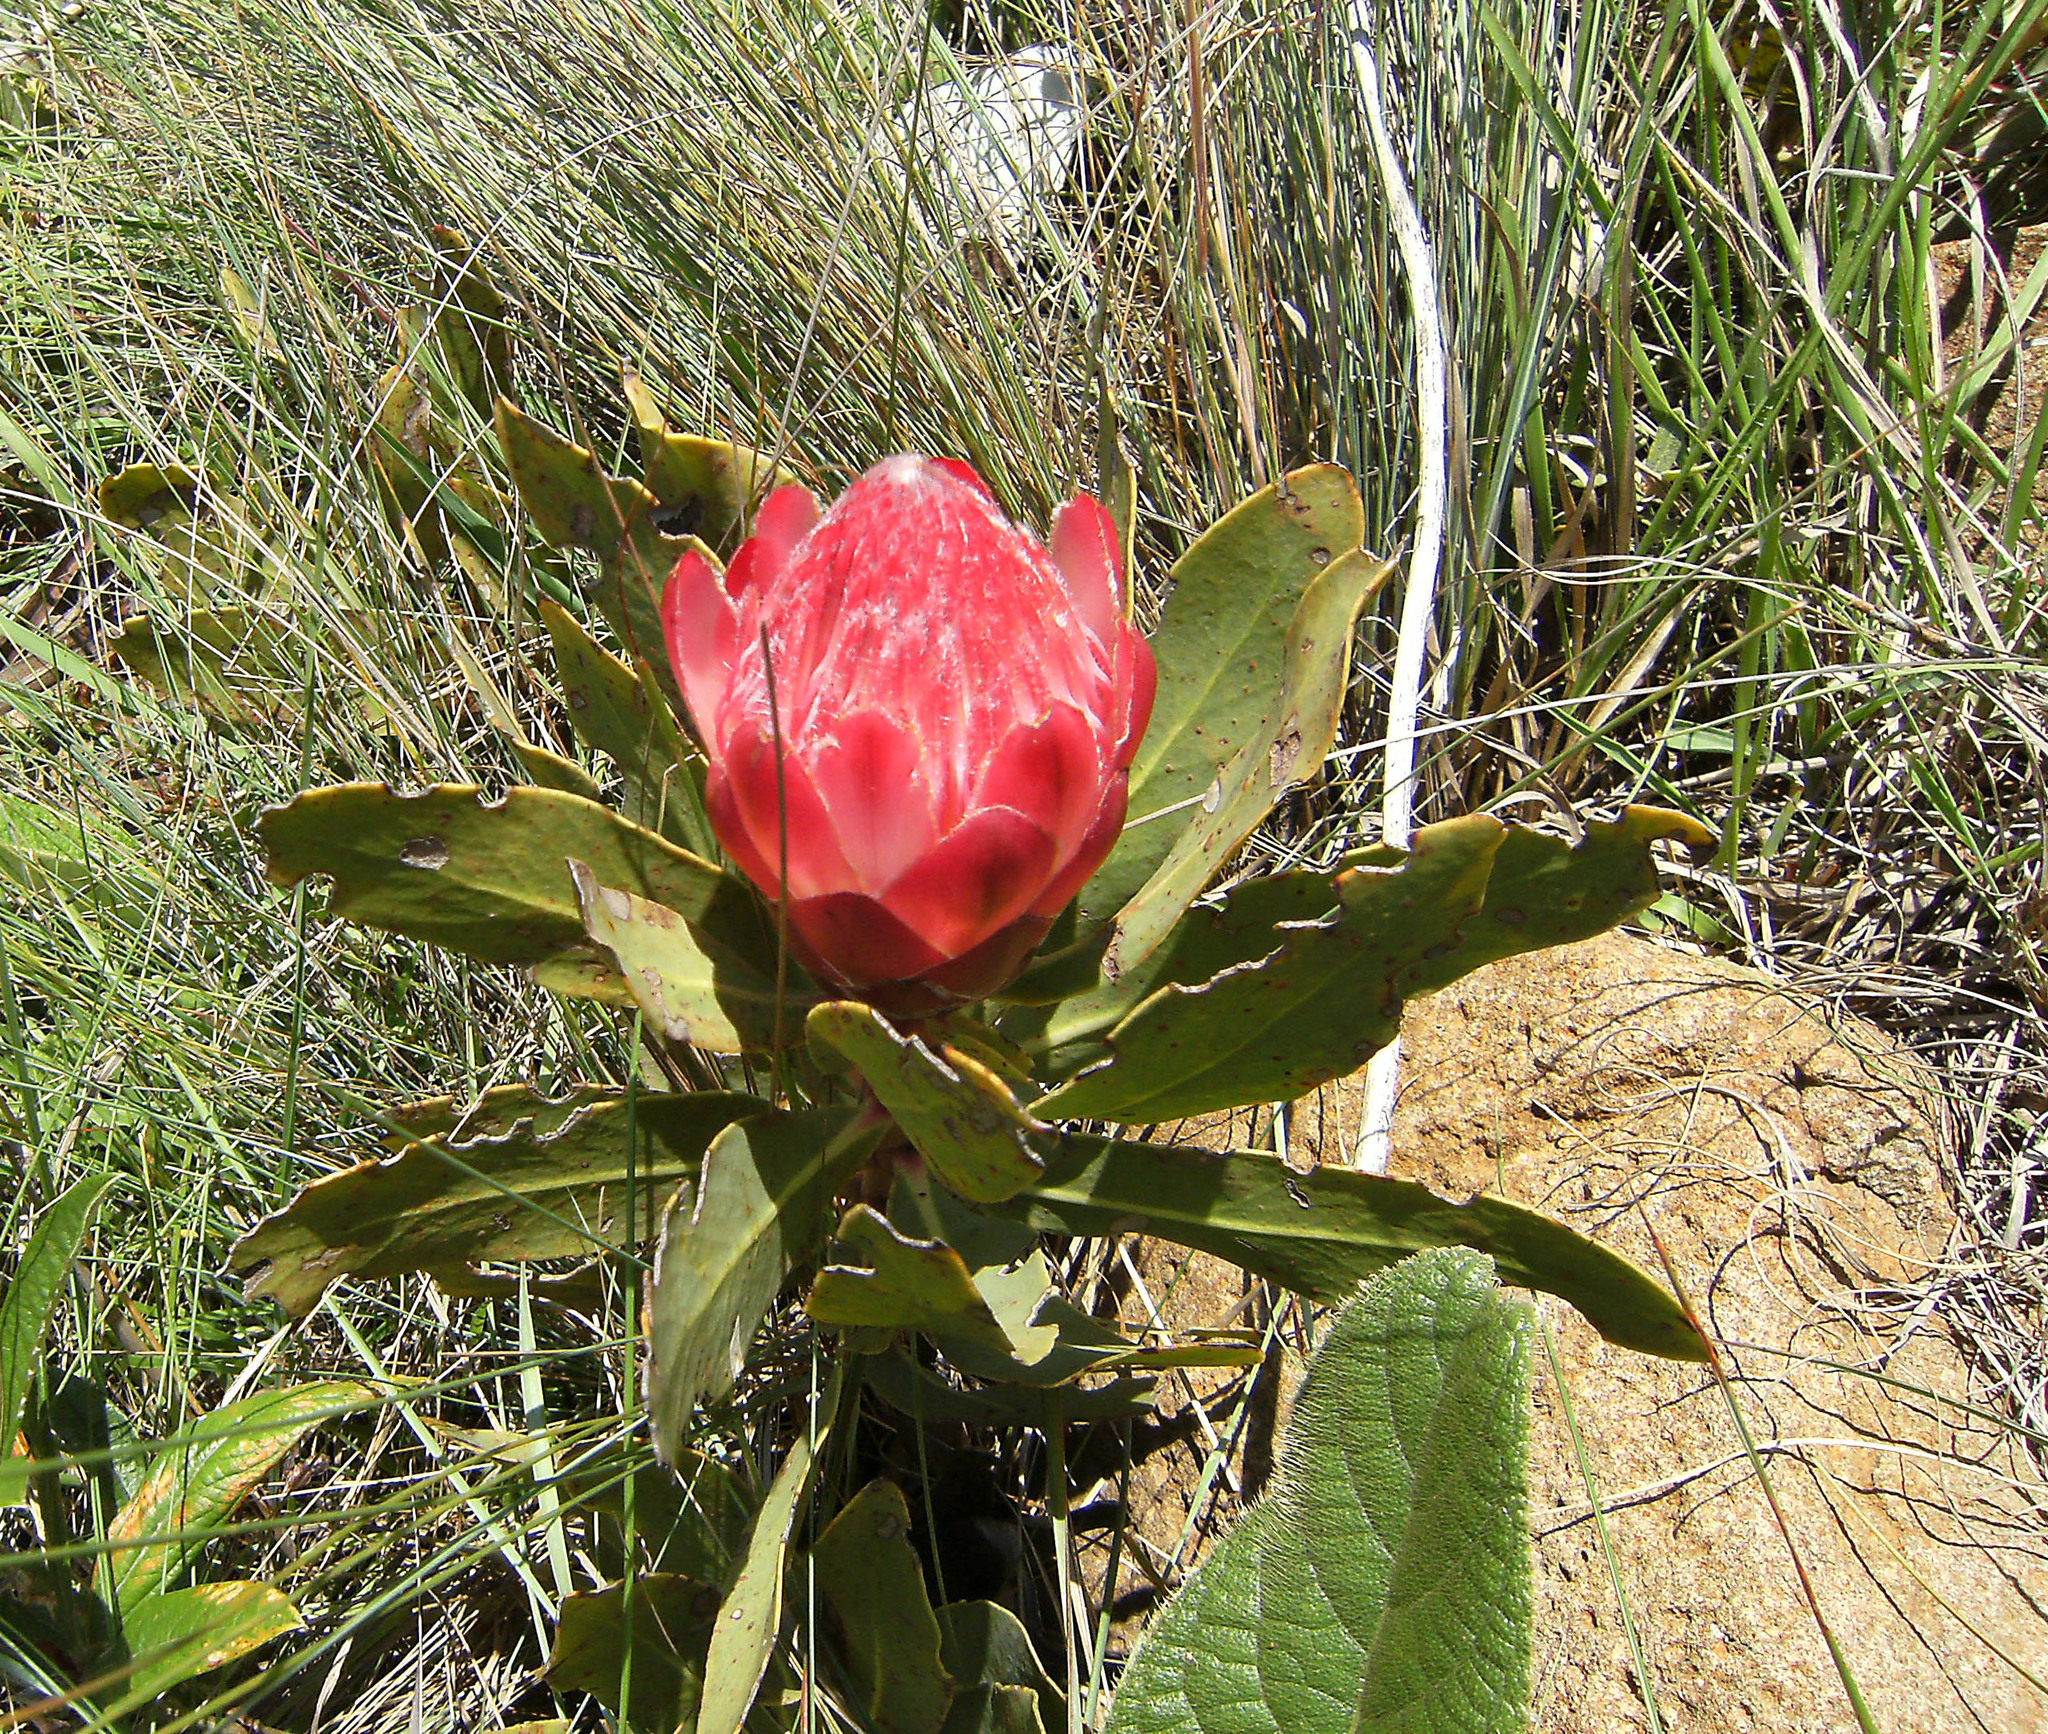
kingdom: Plantae
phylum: Tracheophyta
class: Magnoliopsida
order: Proteales
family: Proteaceae
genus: Protea
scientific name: Protea dracomontana
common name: Drakensberg dwarf sugarbush
